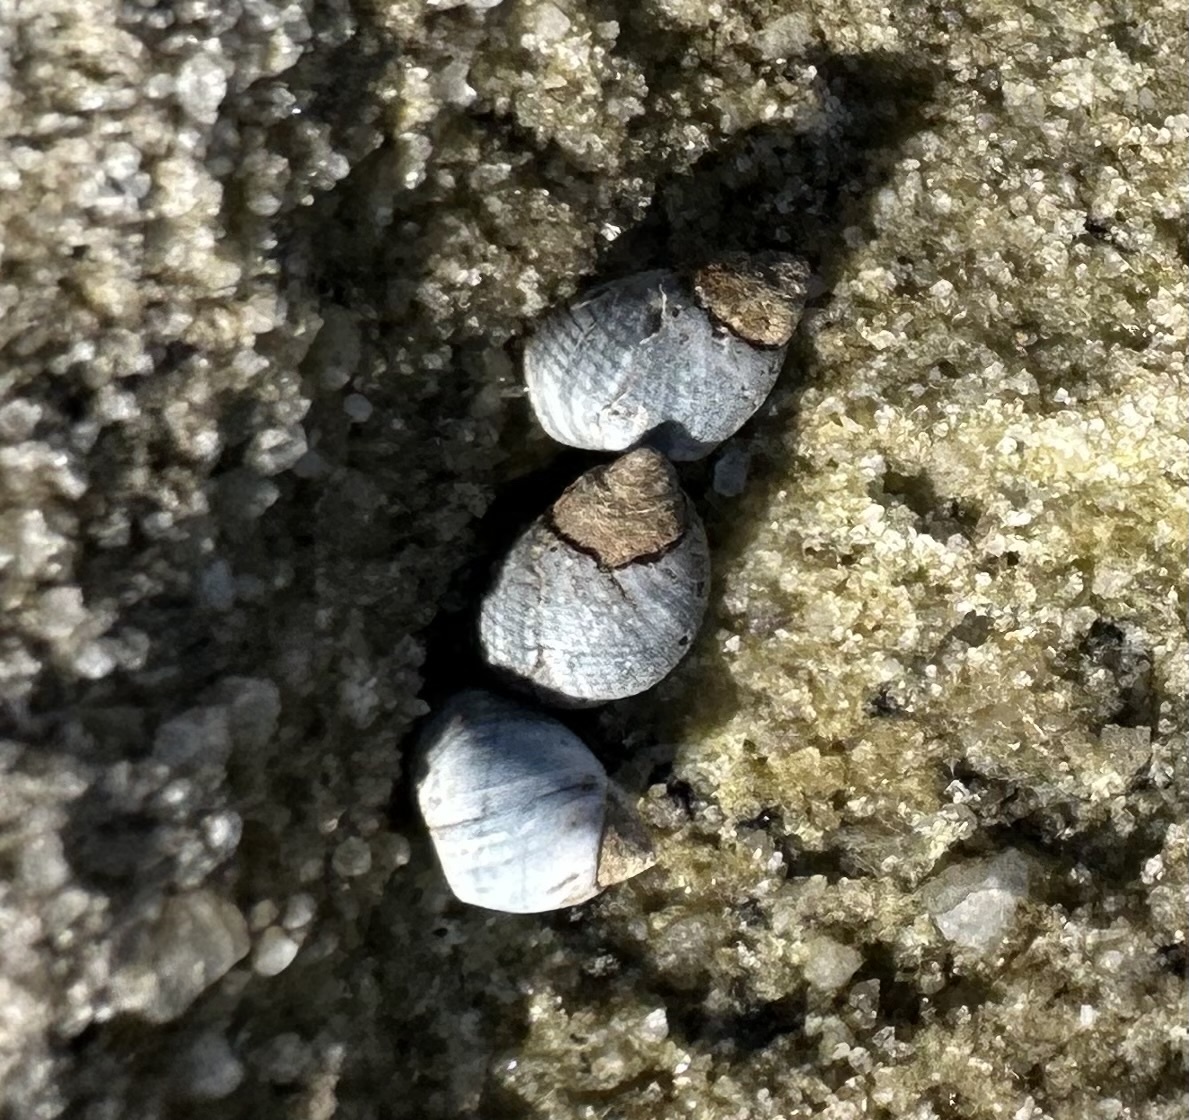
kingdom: Animalia
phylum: Mollusca
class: Gastropoda
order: Littorinimorpha
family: Littorinidae
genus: Austrolittorina
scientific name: Austrolittorina unifasciata
